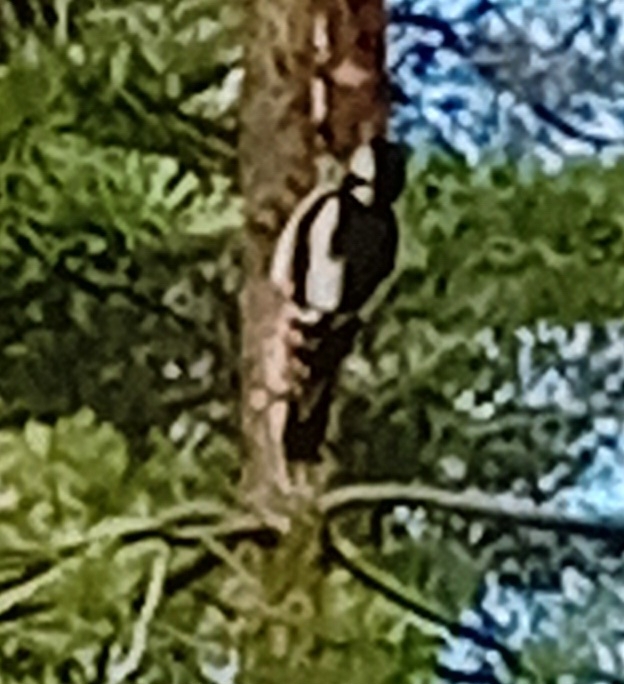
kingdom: Animalia
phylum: Chordata
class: Aves
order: Piciformes
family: Picidae
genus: Dendrocopos
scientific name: Dendrocopos major
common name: Great spotted woodpecker
